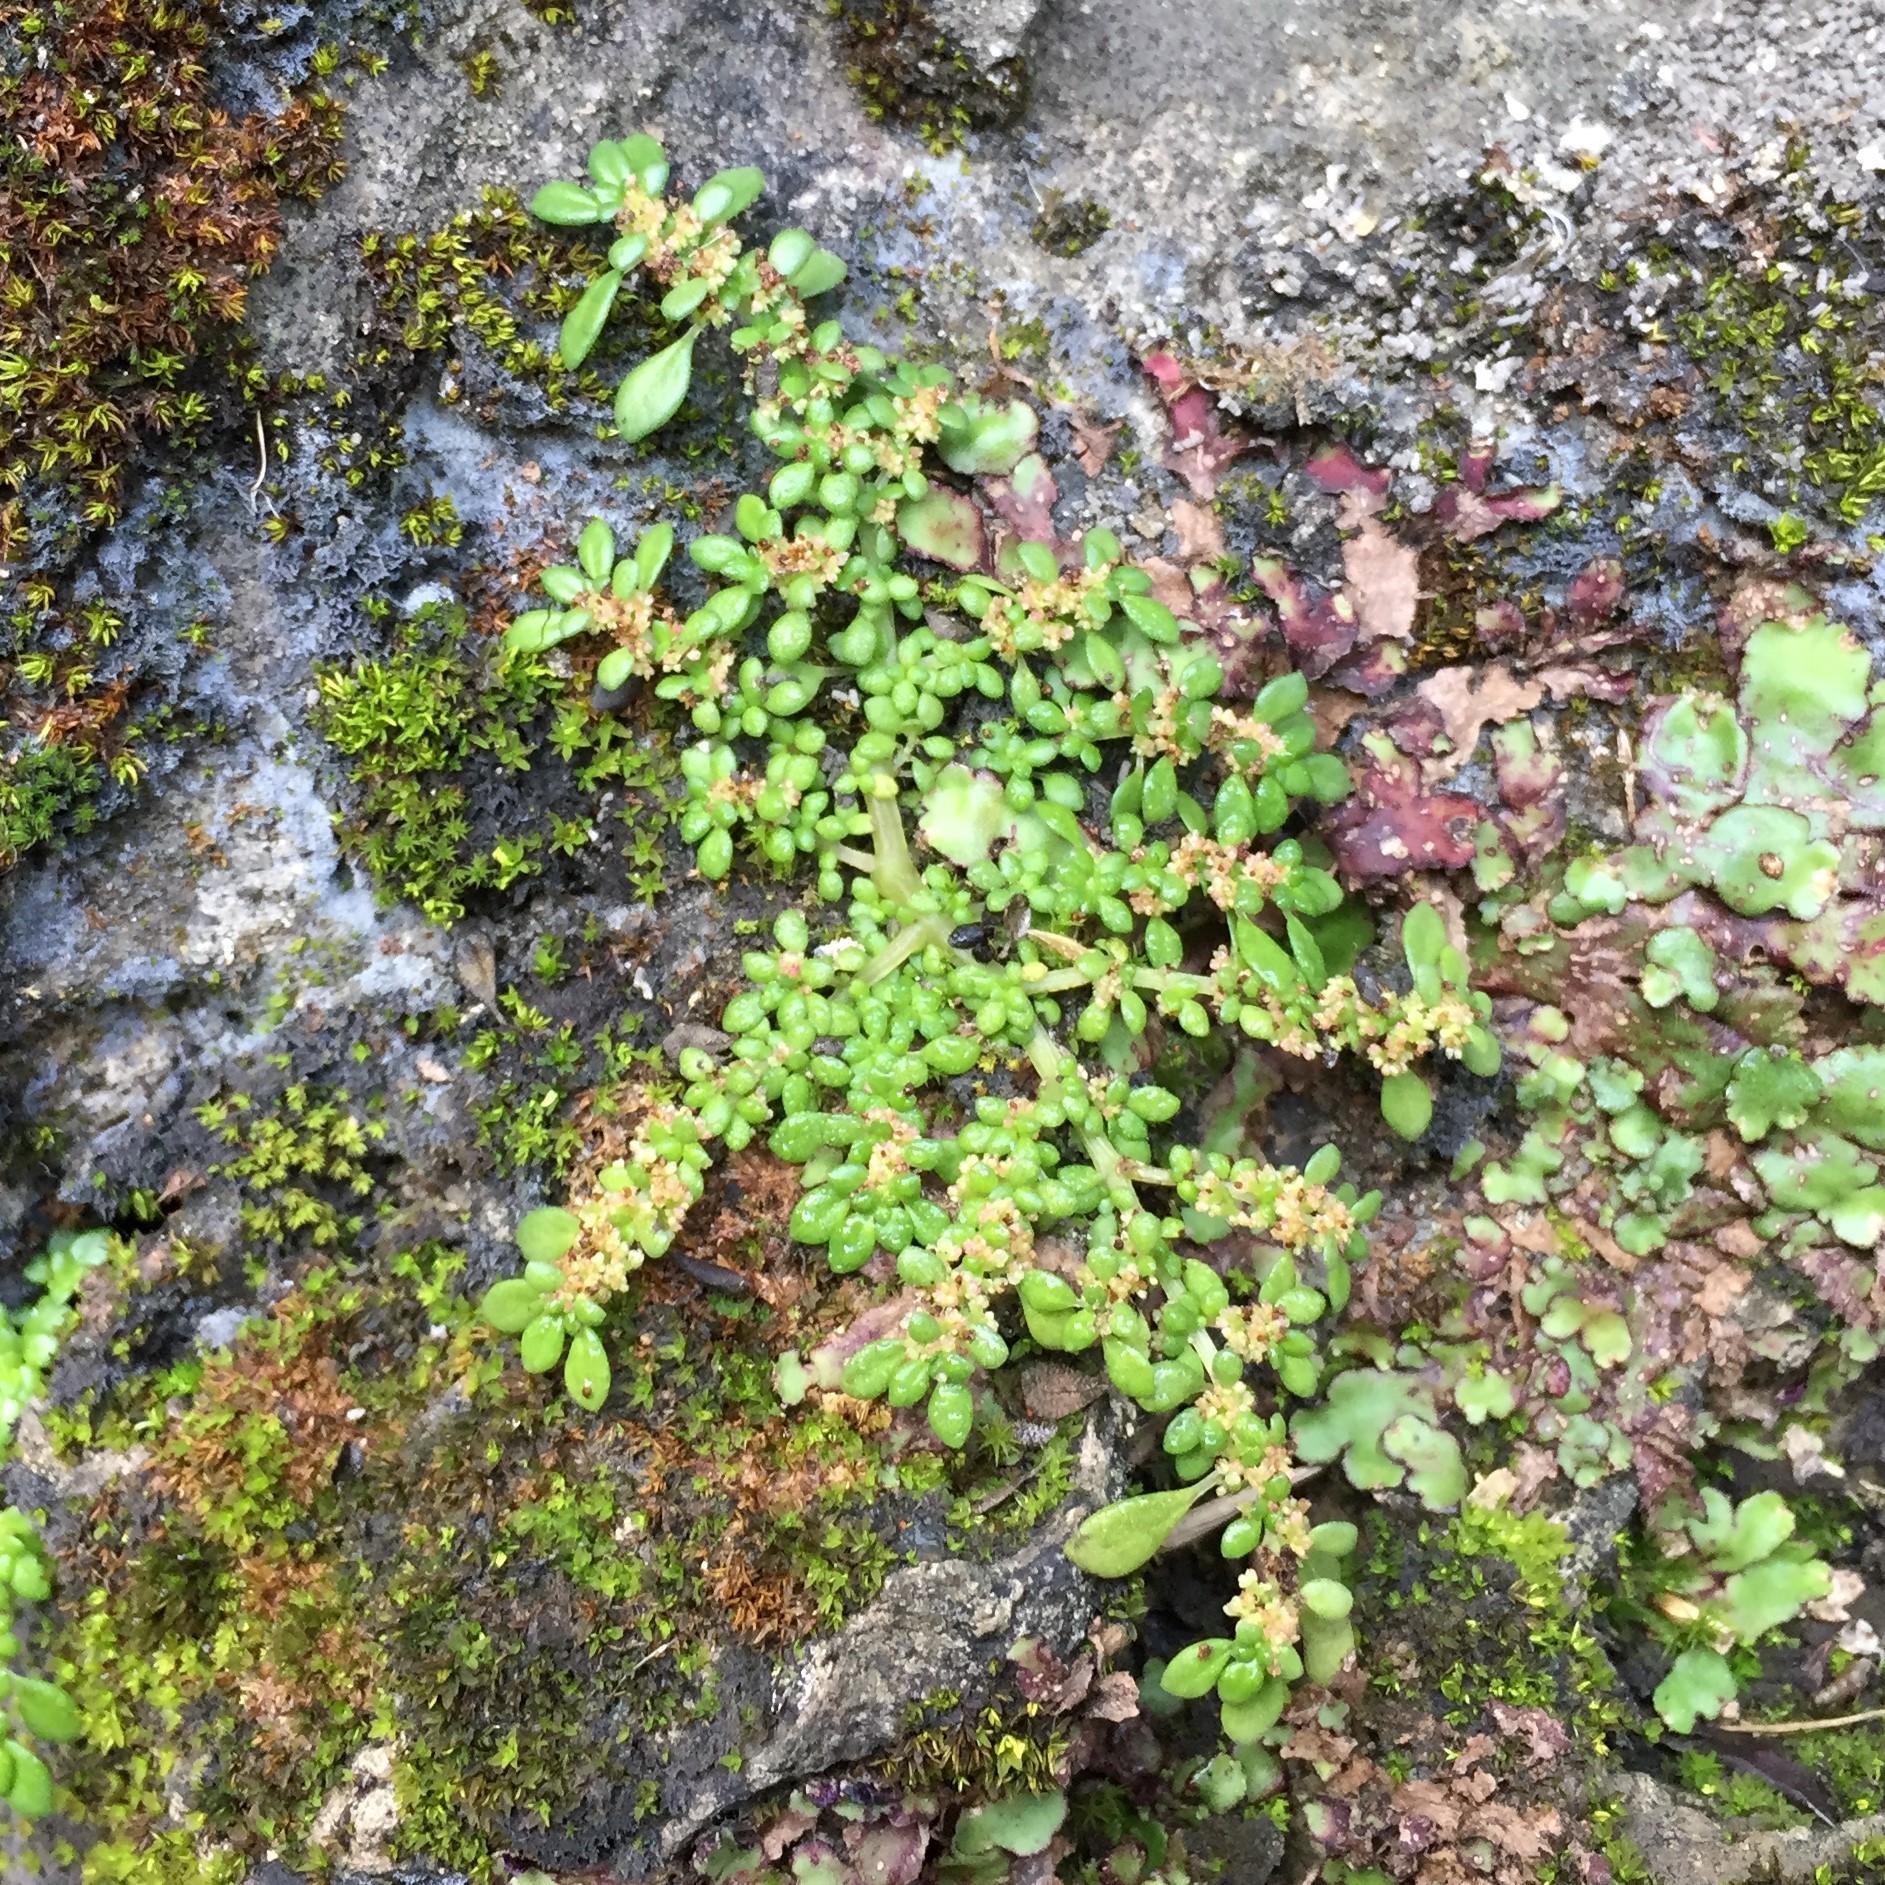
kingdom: Plantae
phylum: Tracheophyta
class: Magnoliopsida
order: Rosales
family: Urticaceae
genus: Pilea
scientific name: Pilea microphylla
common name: Artillery-plant
